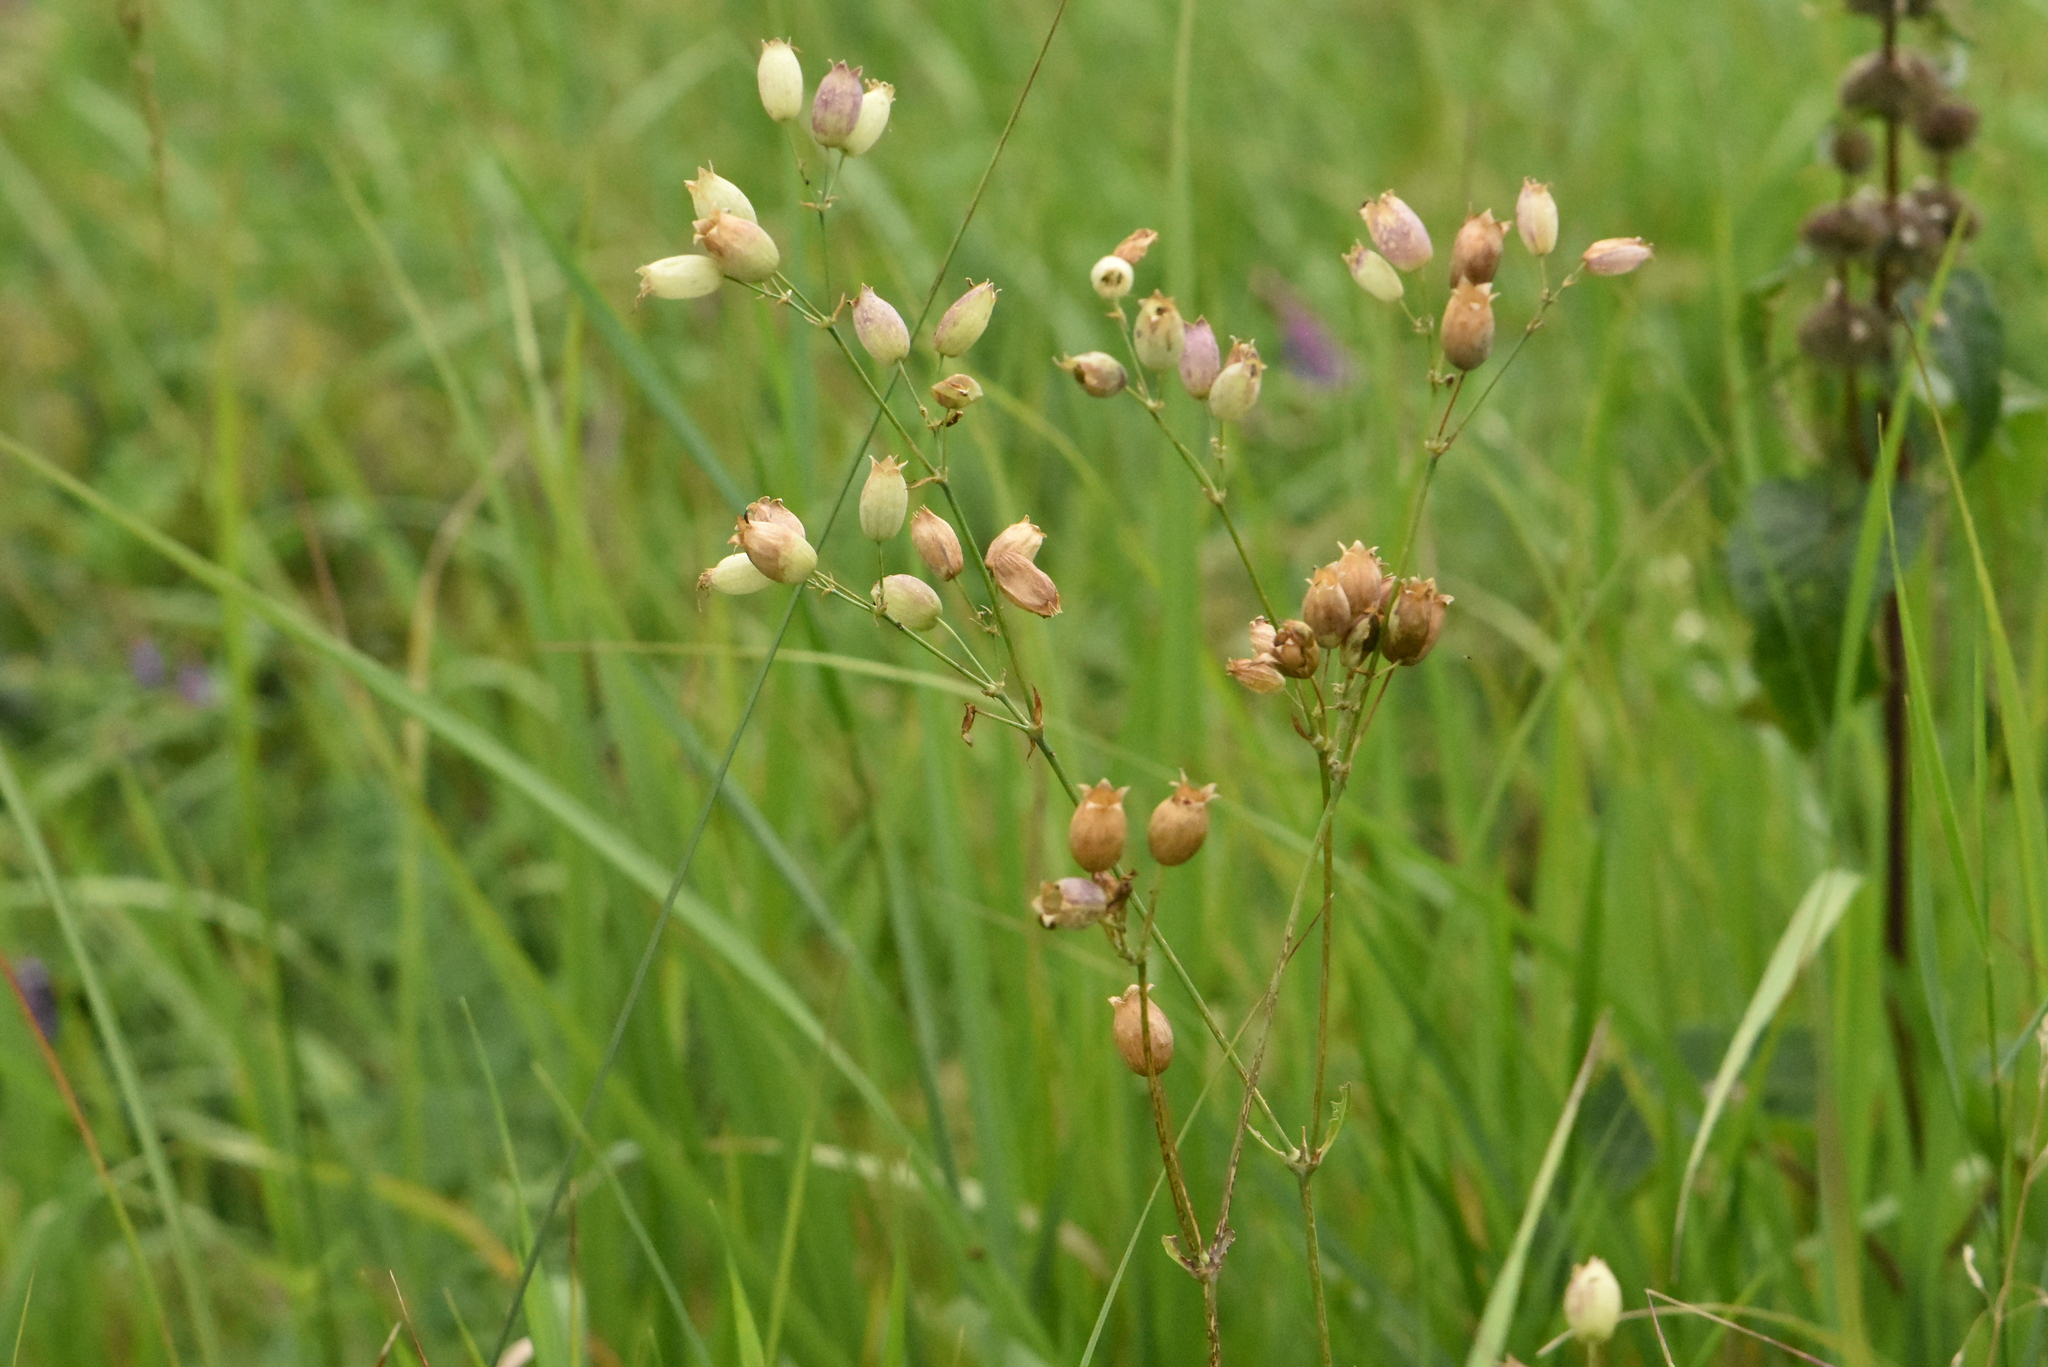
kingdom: Plantae
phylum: Tracheophyta
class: Magnoliopsida
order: Caryophyllales
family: Caryophyllaceae
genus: Silene
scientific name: Silene vulgaris
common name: Bladder campion
